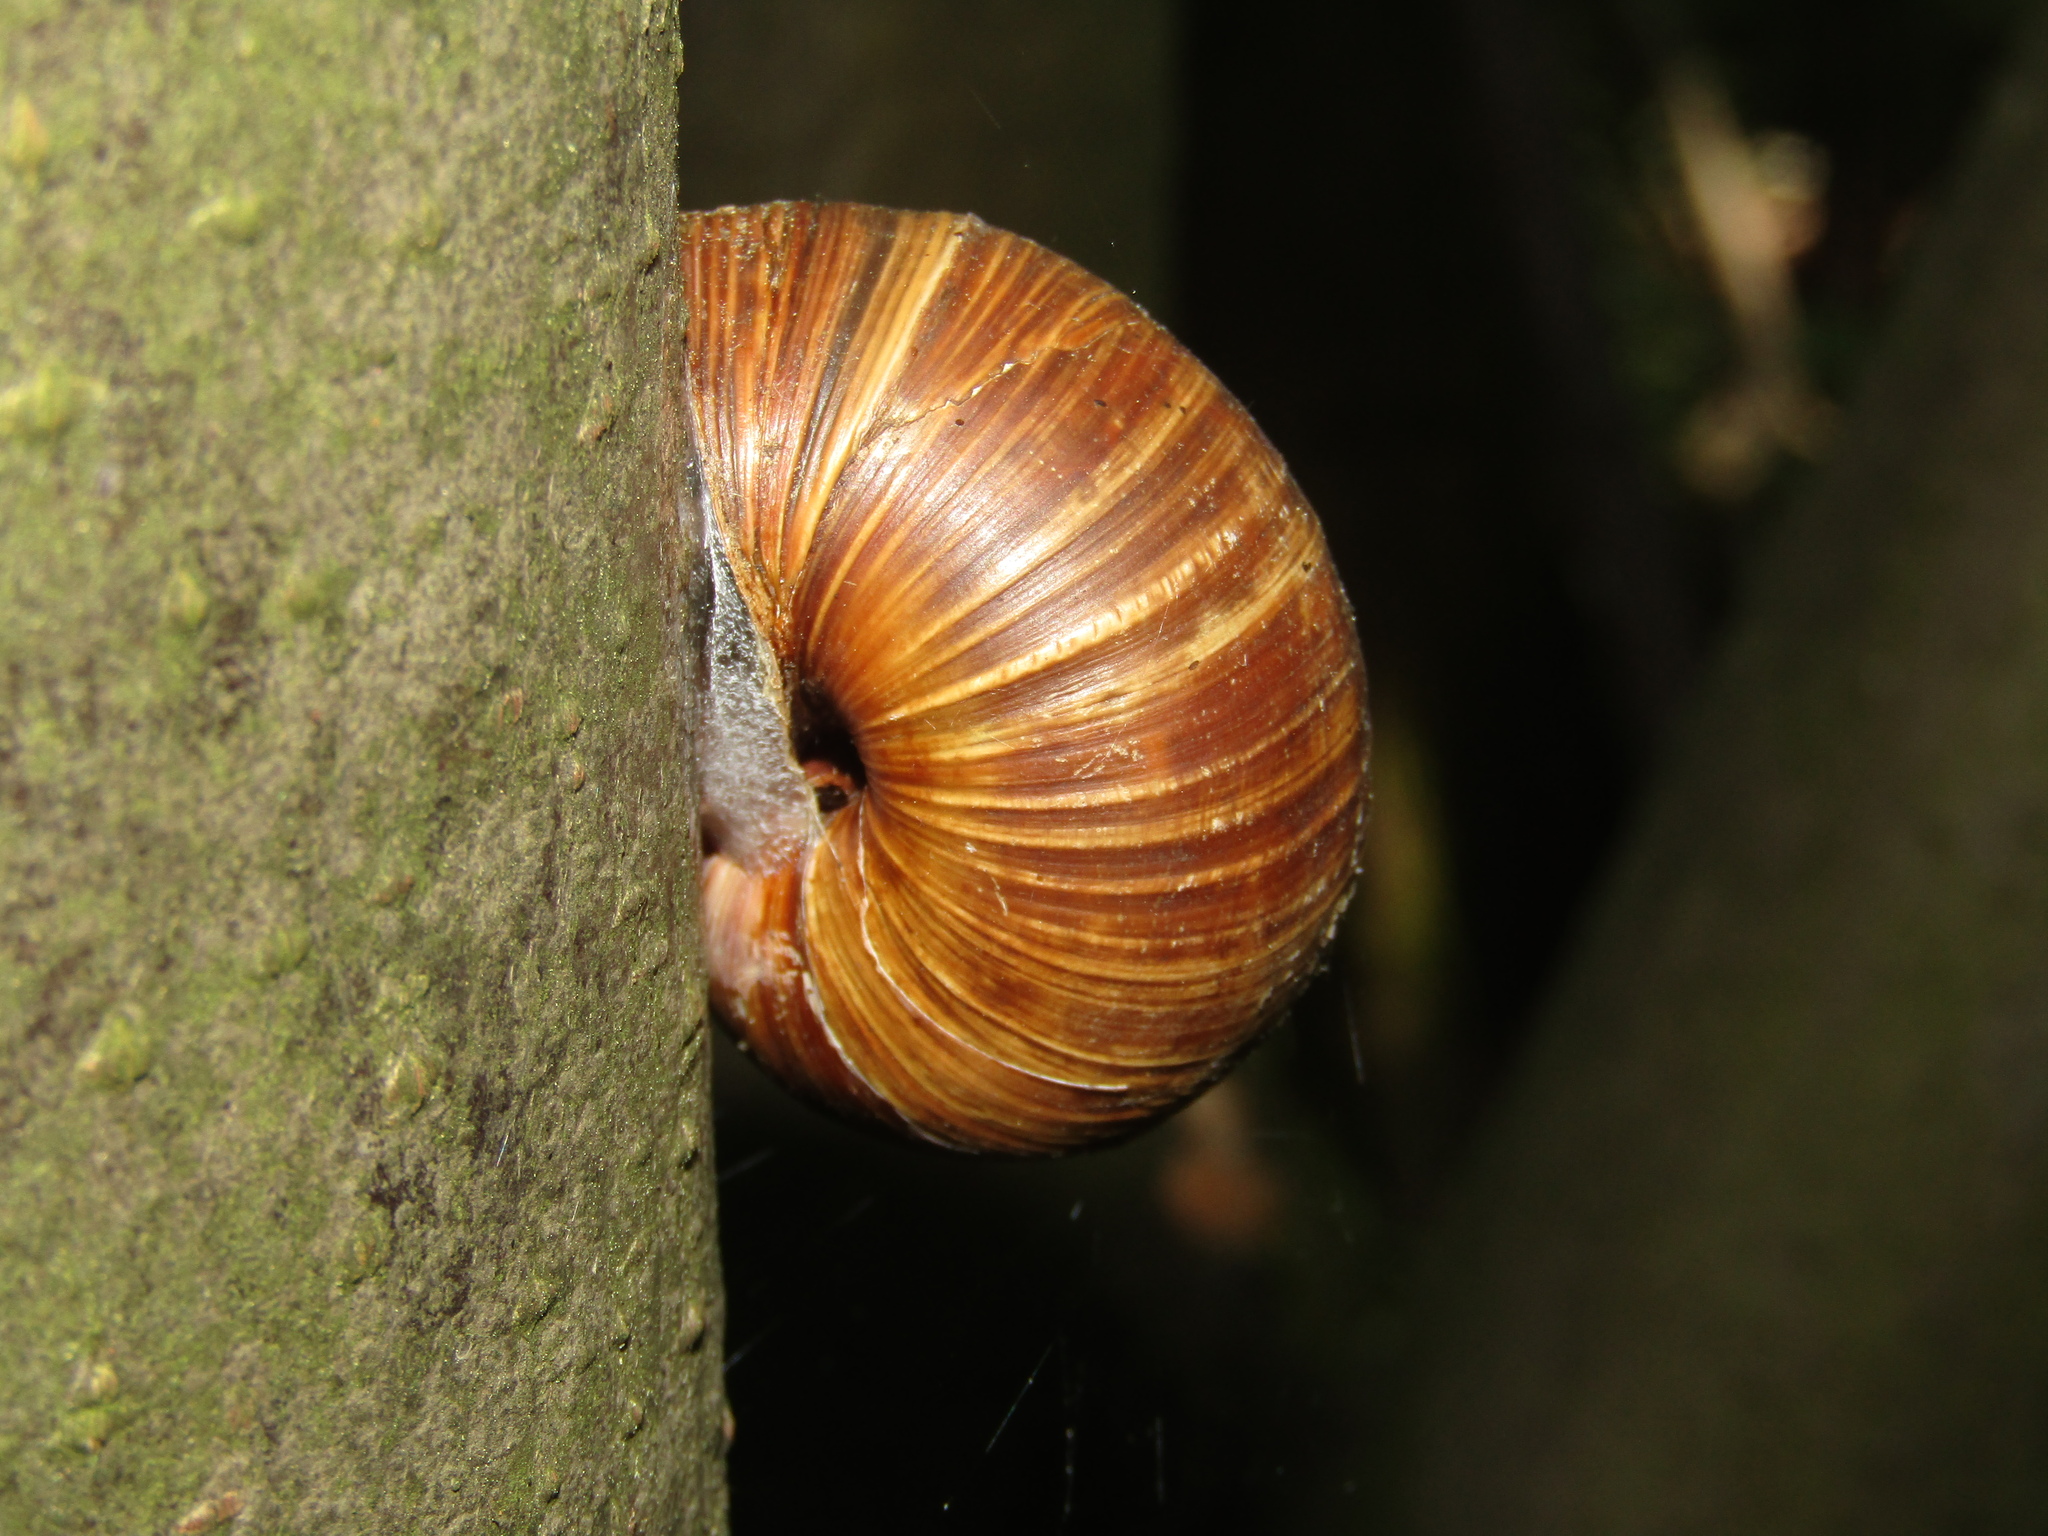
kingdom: Animalia
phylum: Mollusca
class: Gastropoda
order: Stylommatophora
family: Helicidae
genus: Helix
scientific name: Helix pomatia
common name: Roman snail
